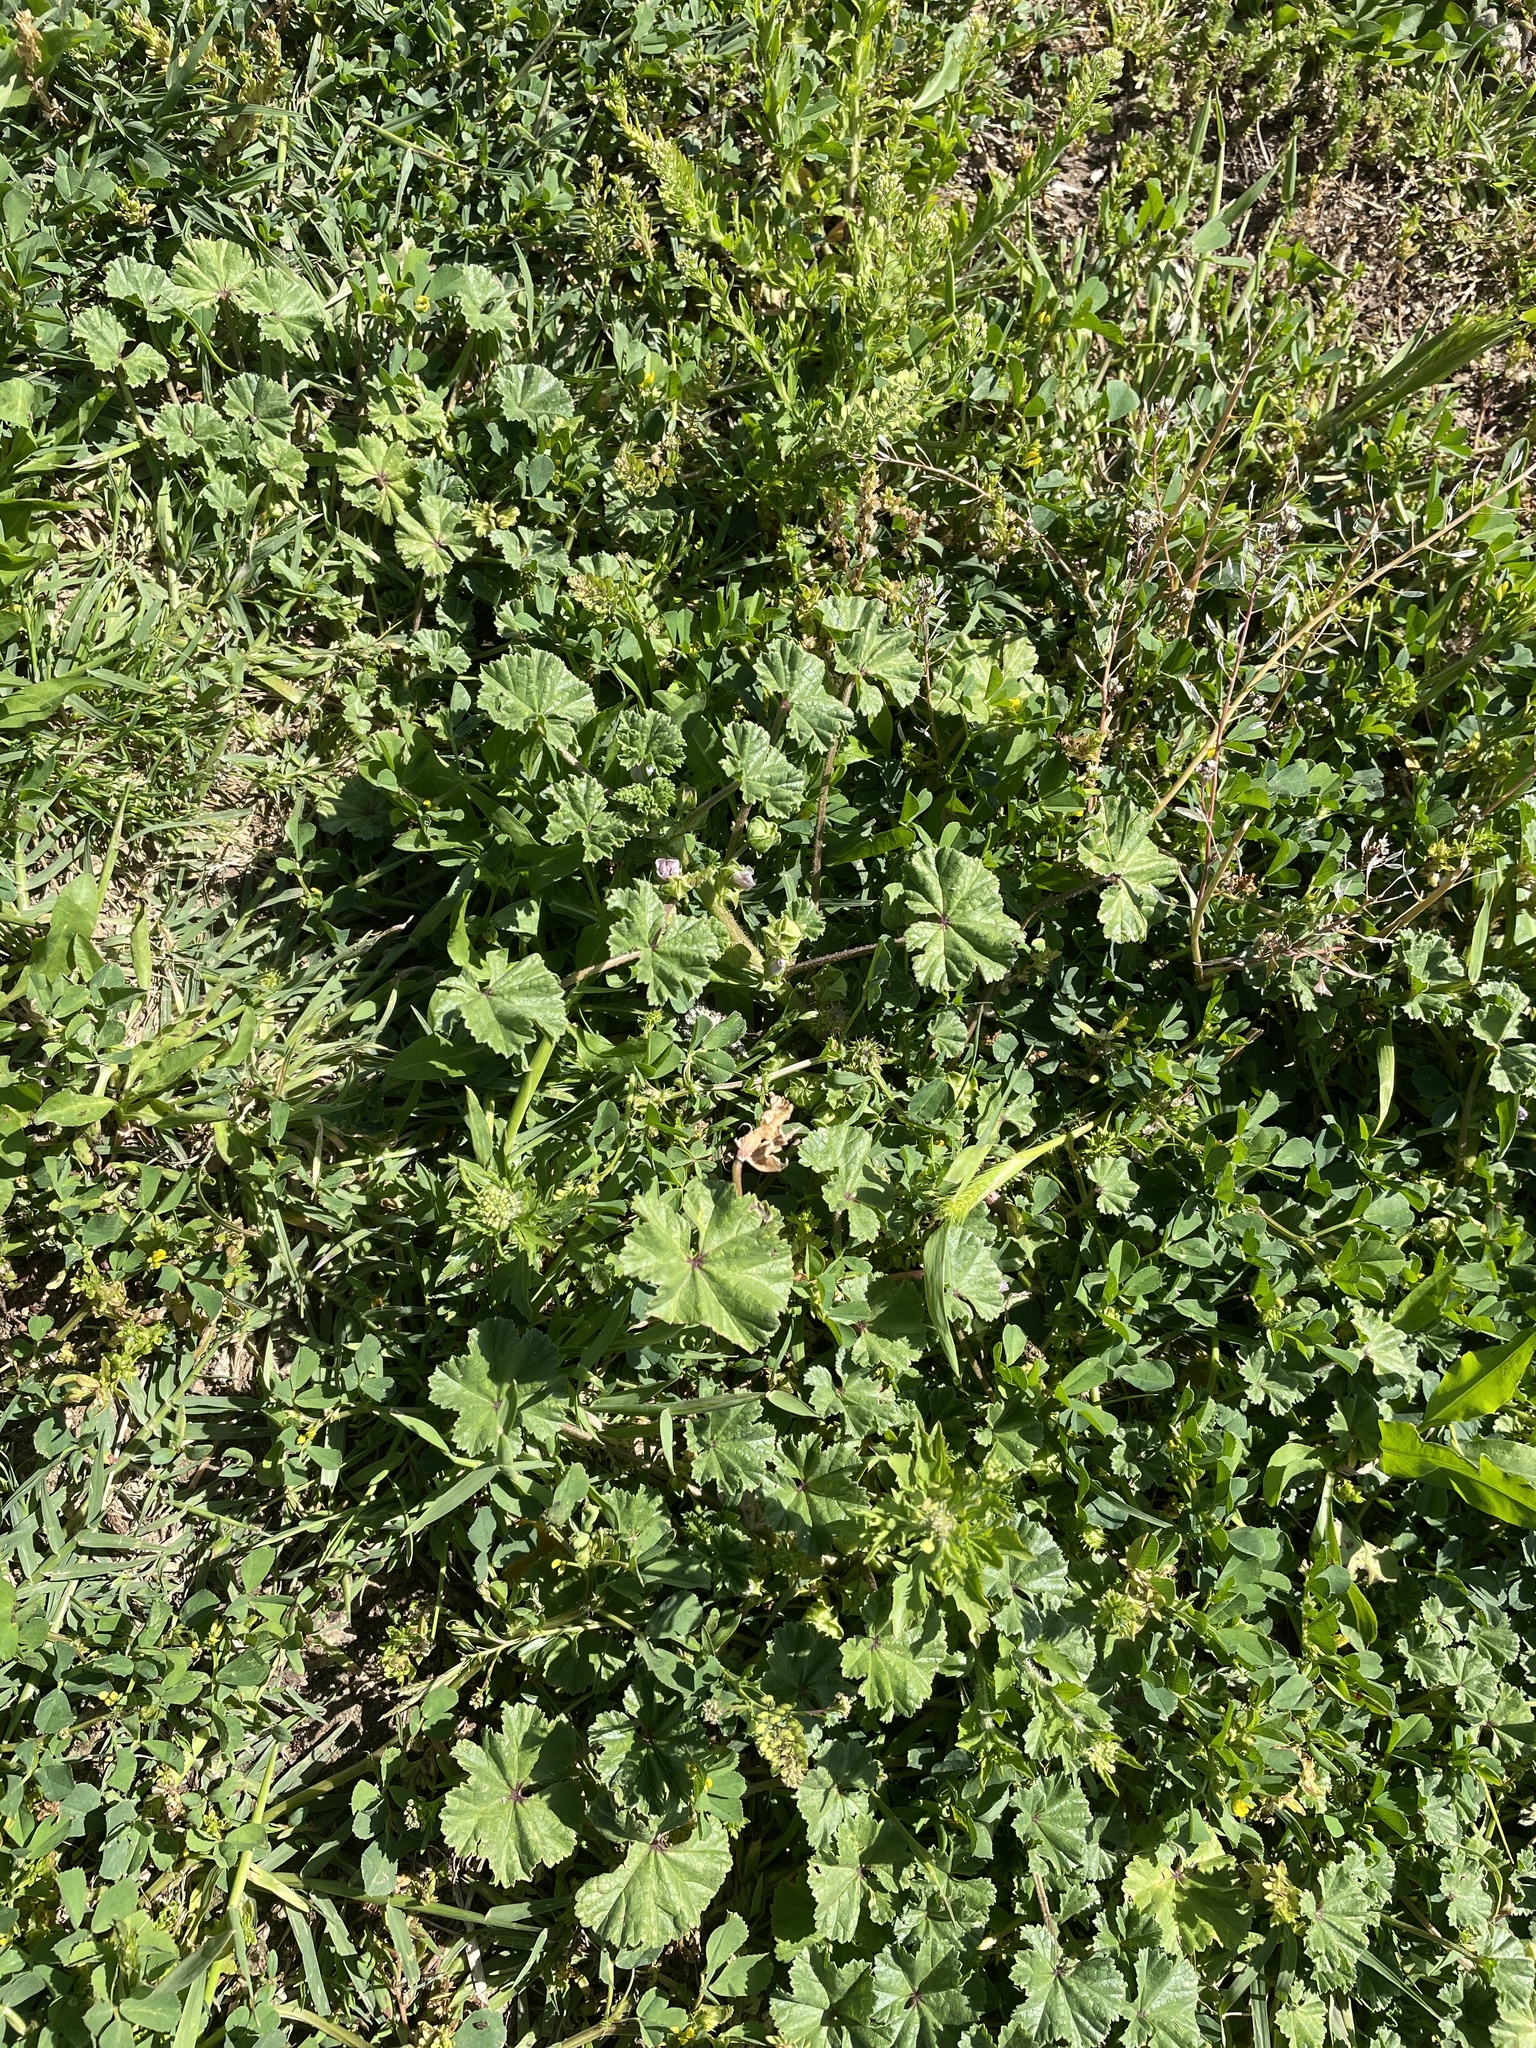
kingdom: Plantae
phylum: Tracheophyta
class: Magnoliopsida
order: Malvales
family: Malvaceae
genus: Malva
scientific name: Malva neglecta
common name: Common mallow
